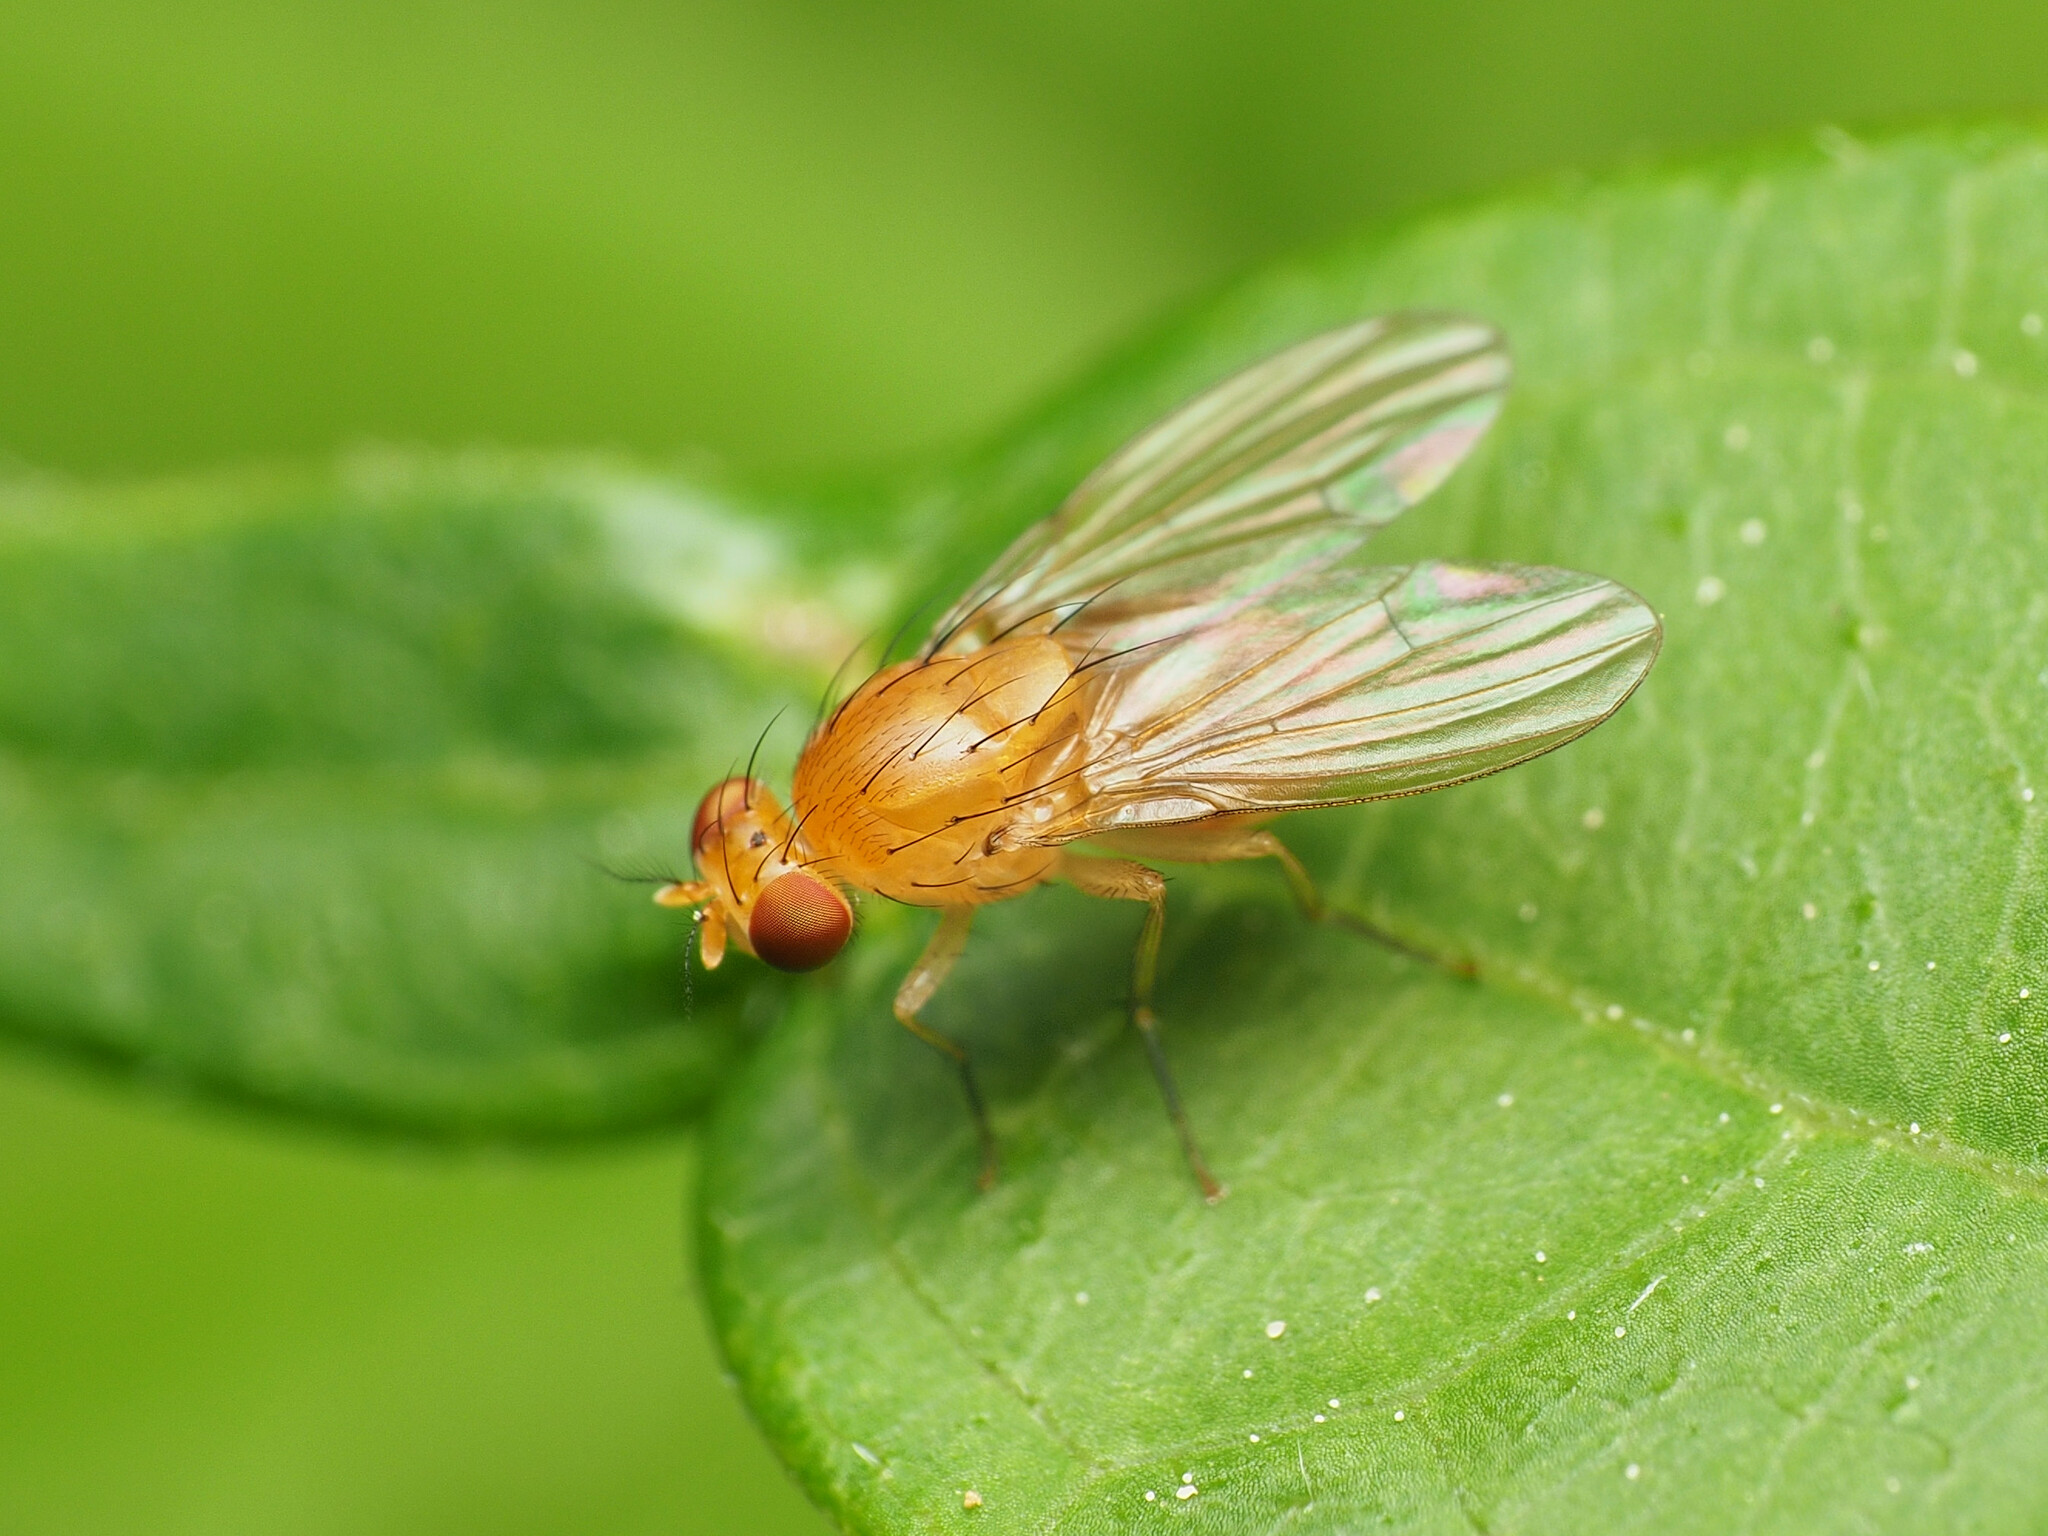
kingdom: Animalia
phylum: Arthropoda
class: Insecta
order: Diptera
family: Lauxaniidae
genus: Neogriphoneura
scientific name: Neogriphoneura sordida
